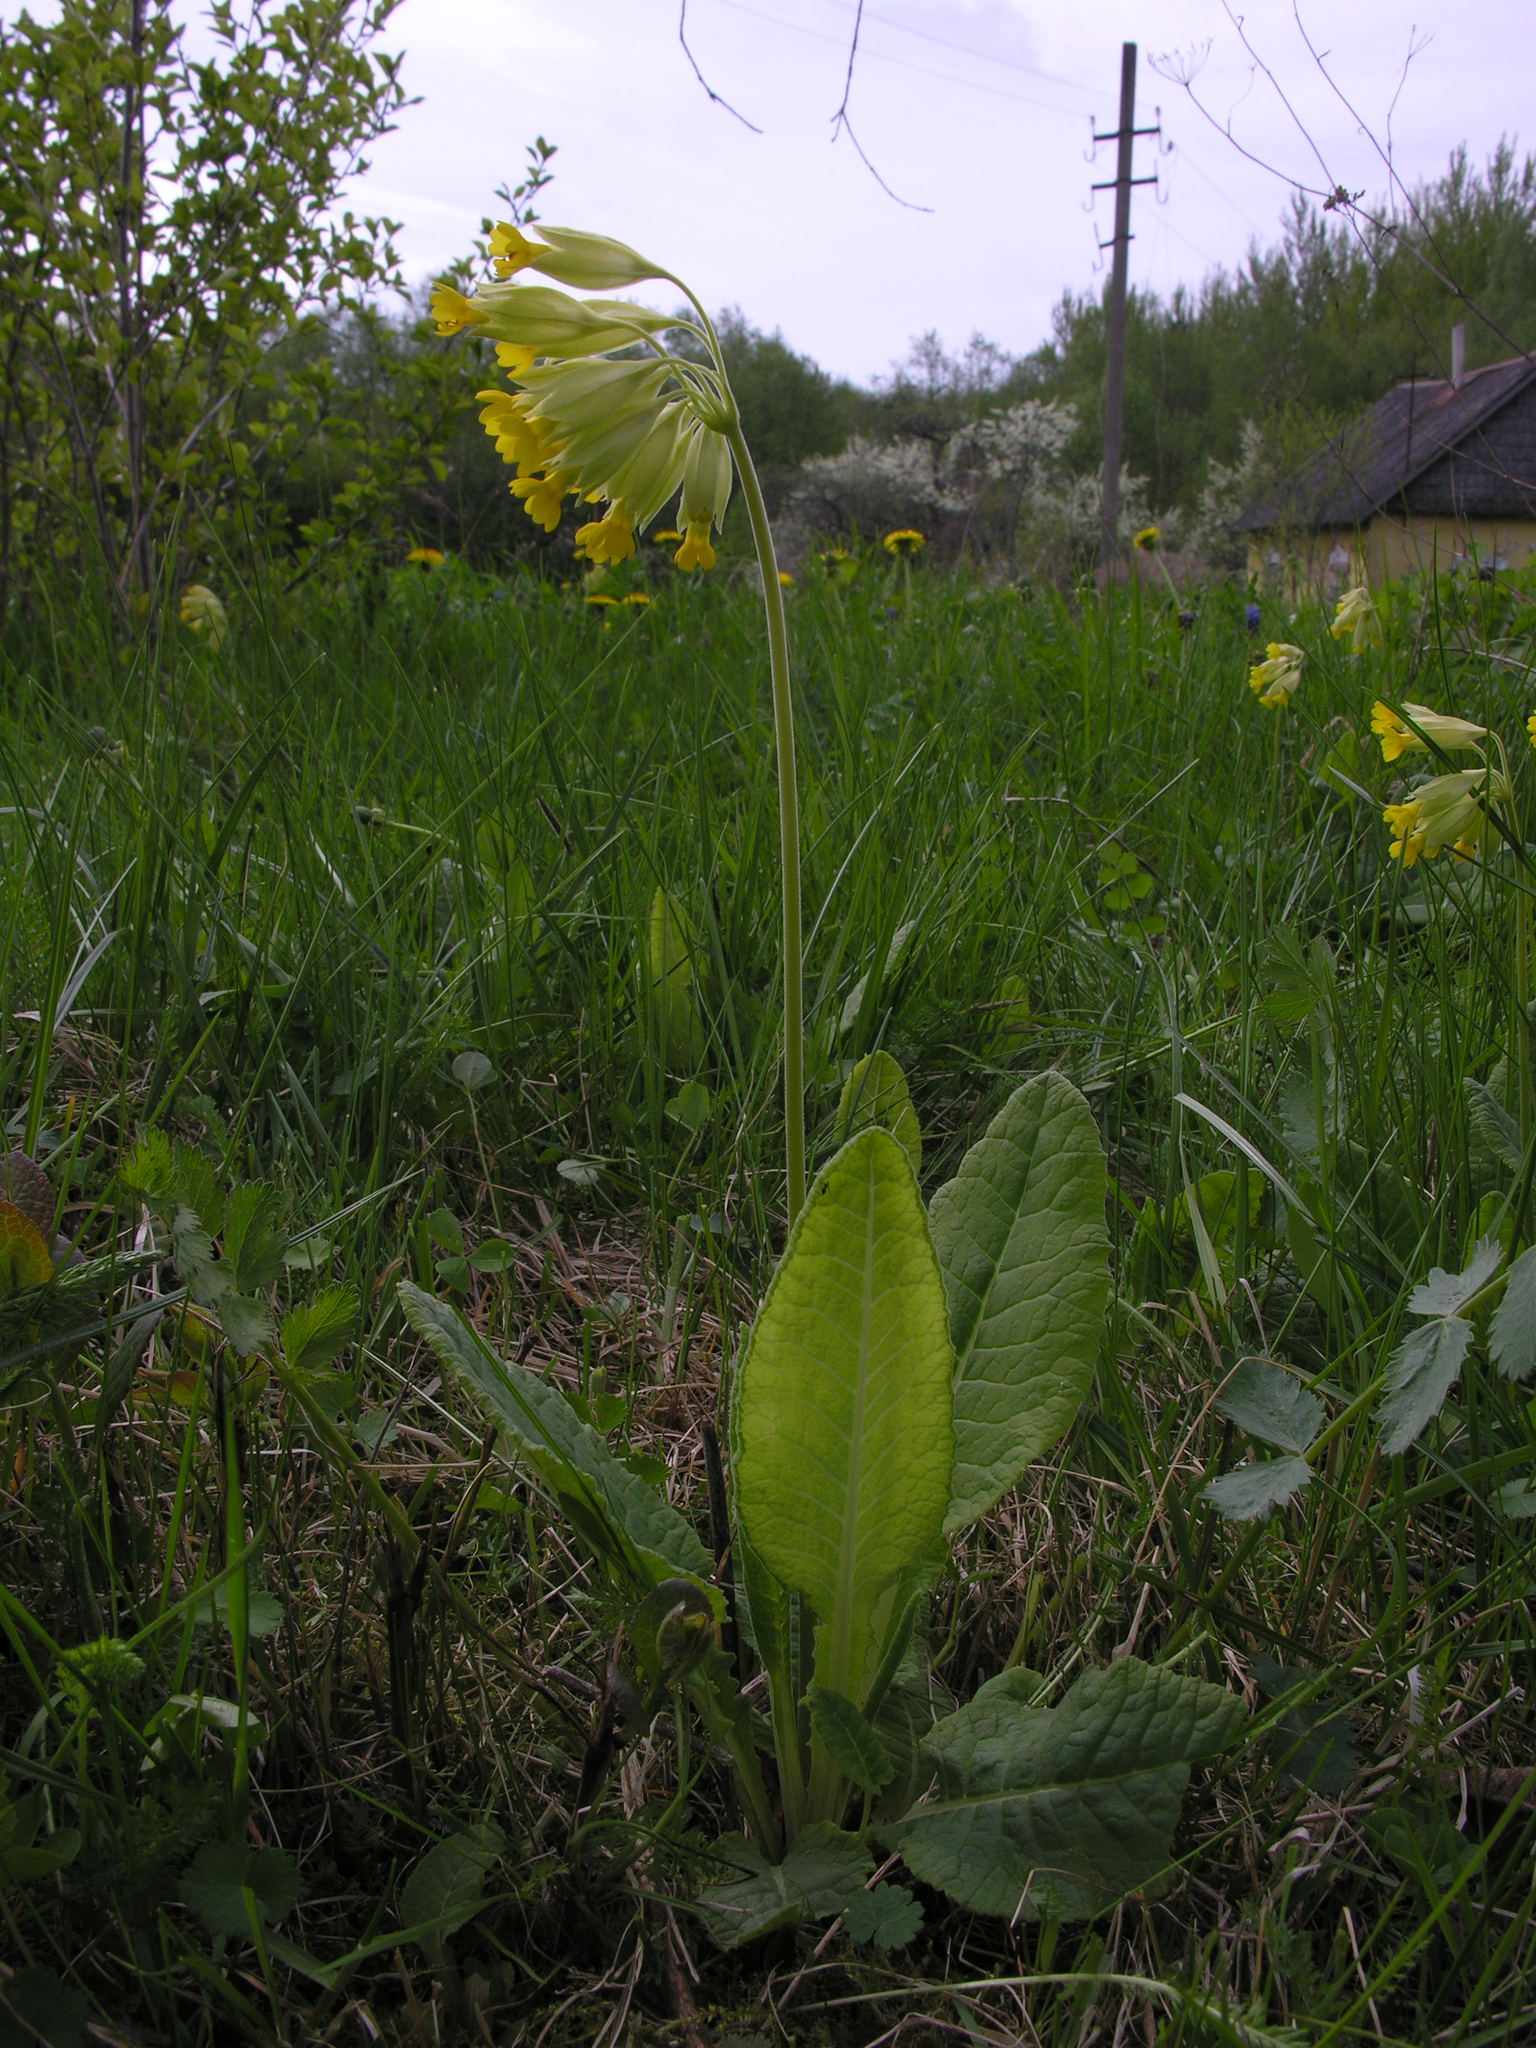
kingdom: Plantae
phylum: Tracheophyta
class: Magnoliopsida
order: Ericales
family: Primulaceae
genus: Primula
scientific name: Primula veris
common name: Cowslip
